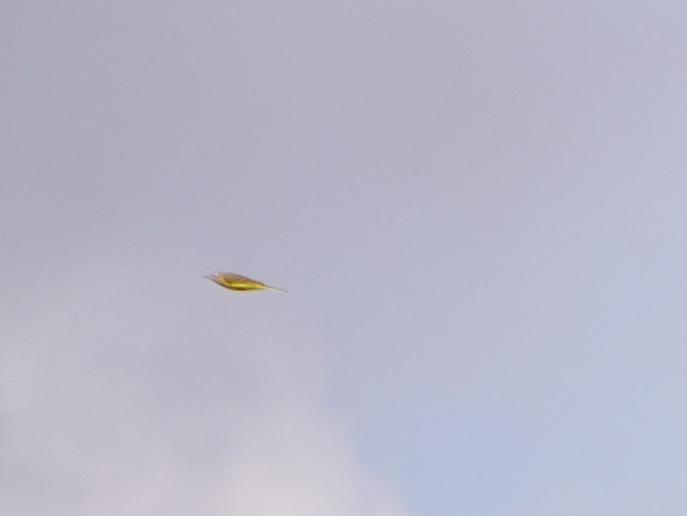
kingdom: Animalia
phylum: Chordata
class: Aves
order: Passeriformes
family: Motacillidae
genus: Motacilla
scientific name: Motacilla flava
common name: Western yellow wagtail
